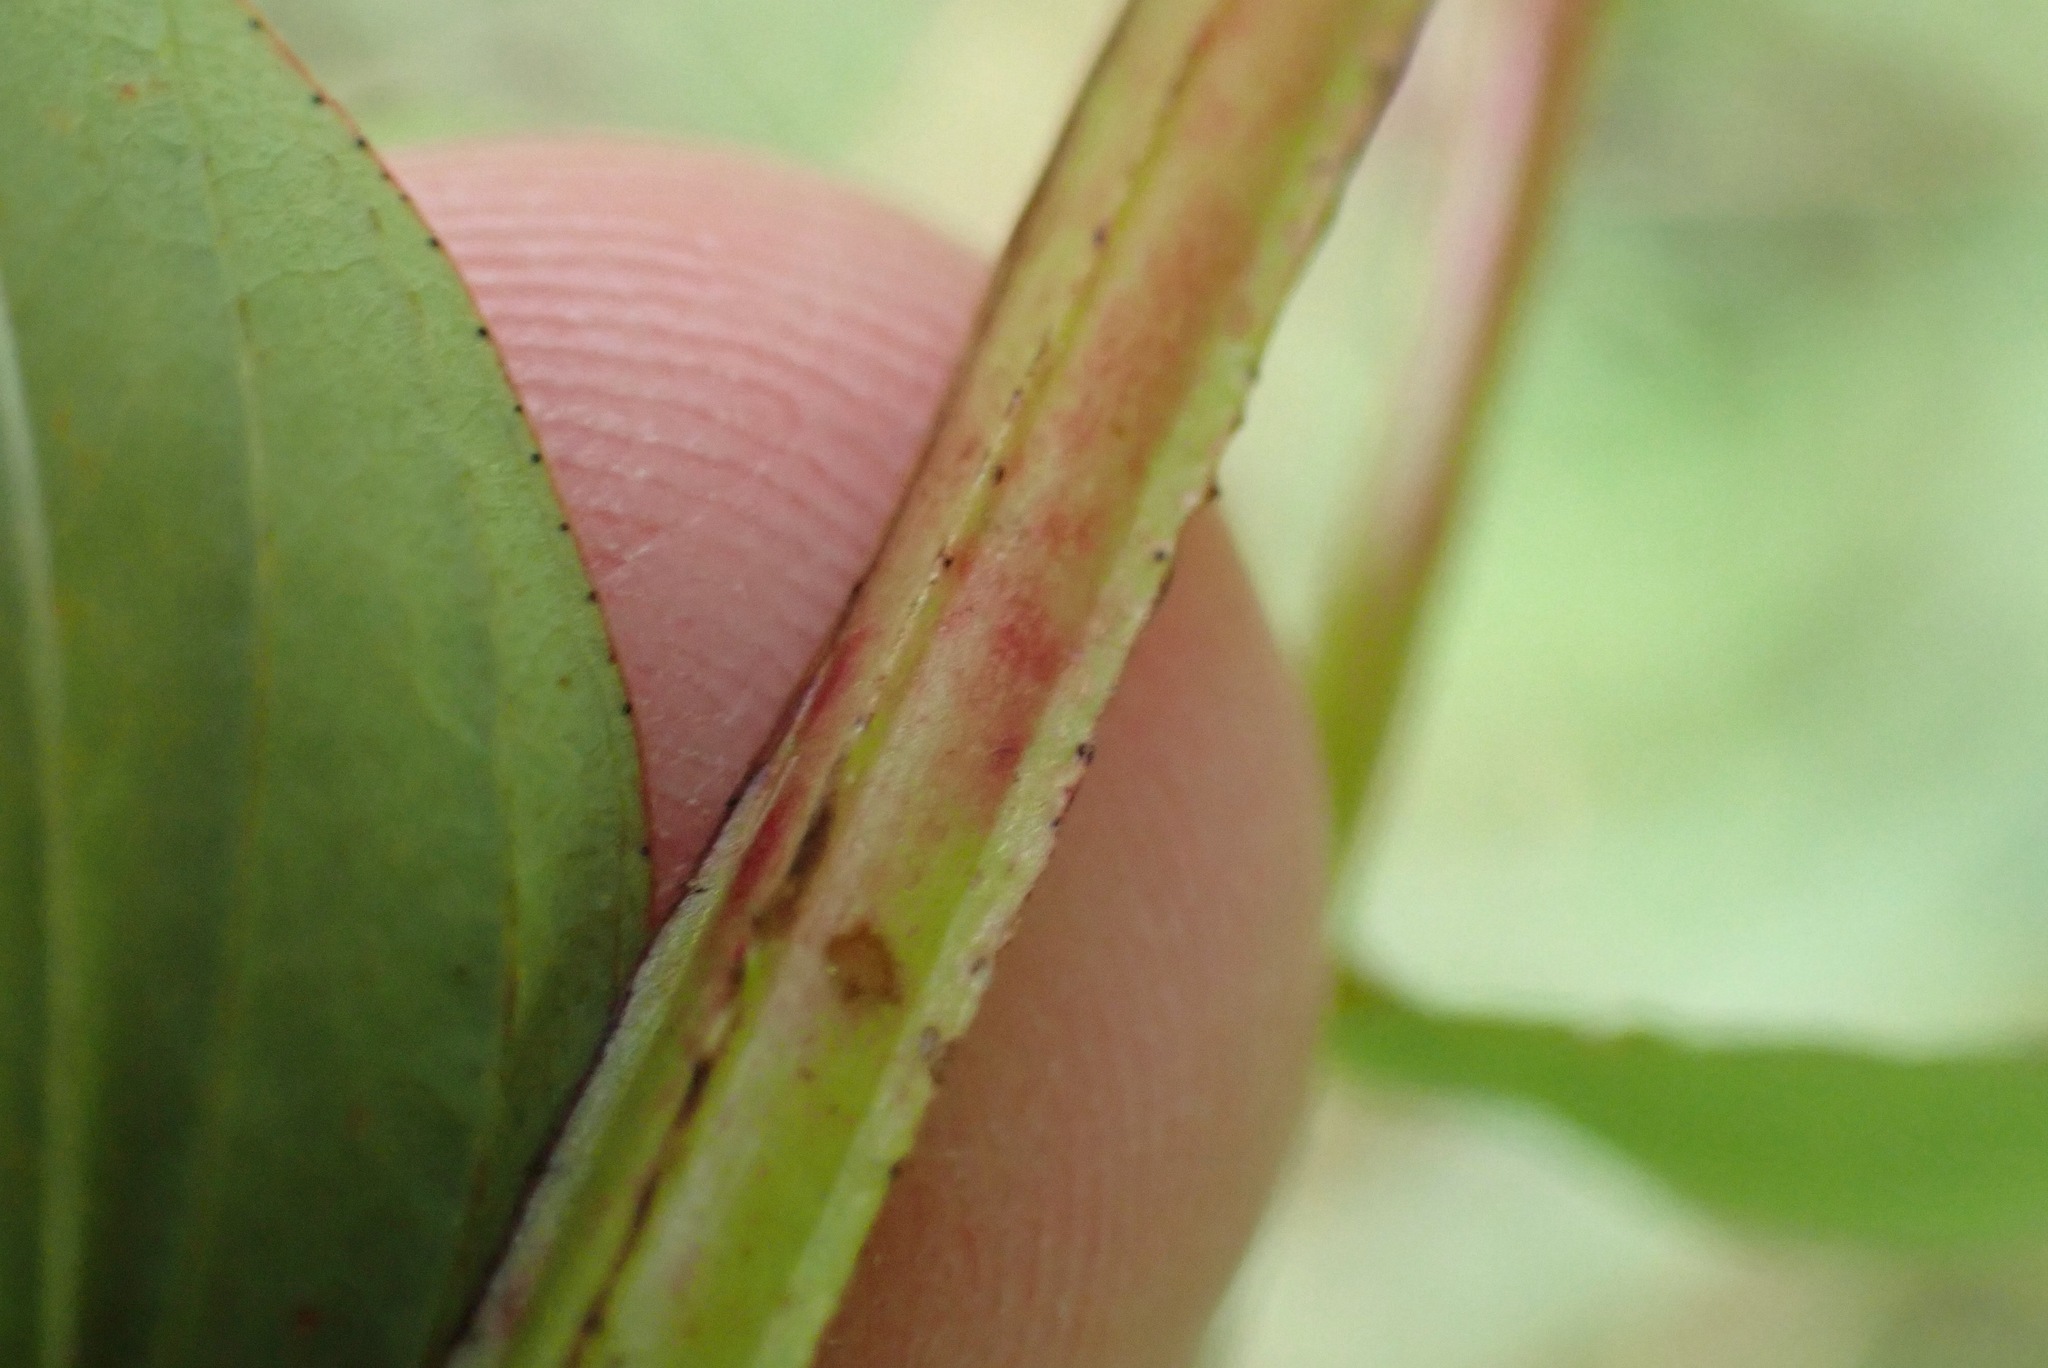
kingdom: Plantae
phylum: Tracheophyta
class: Magnoliopsida
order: Malpighiales
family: Hypericaceae
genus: Hypericum
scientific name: Hypericum tetrapterum
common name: Square-stalked st. john's-wort
